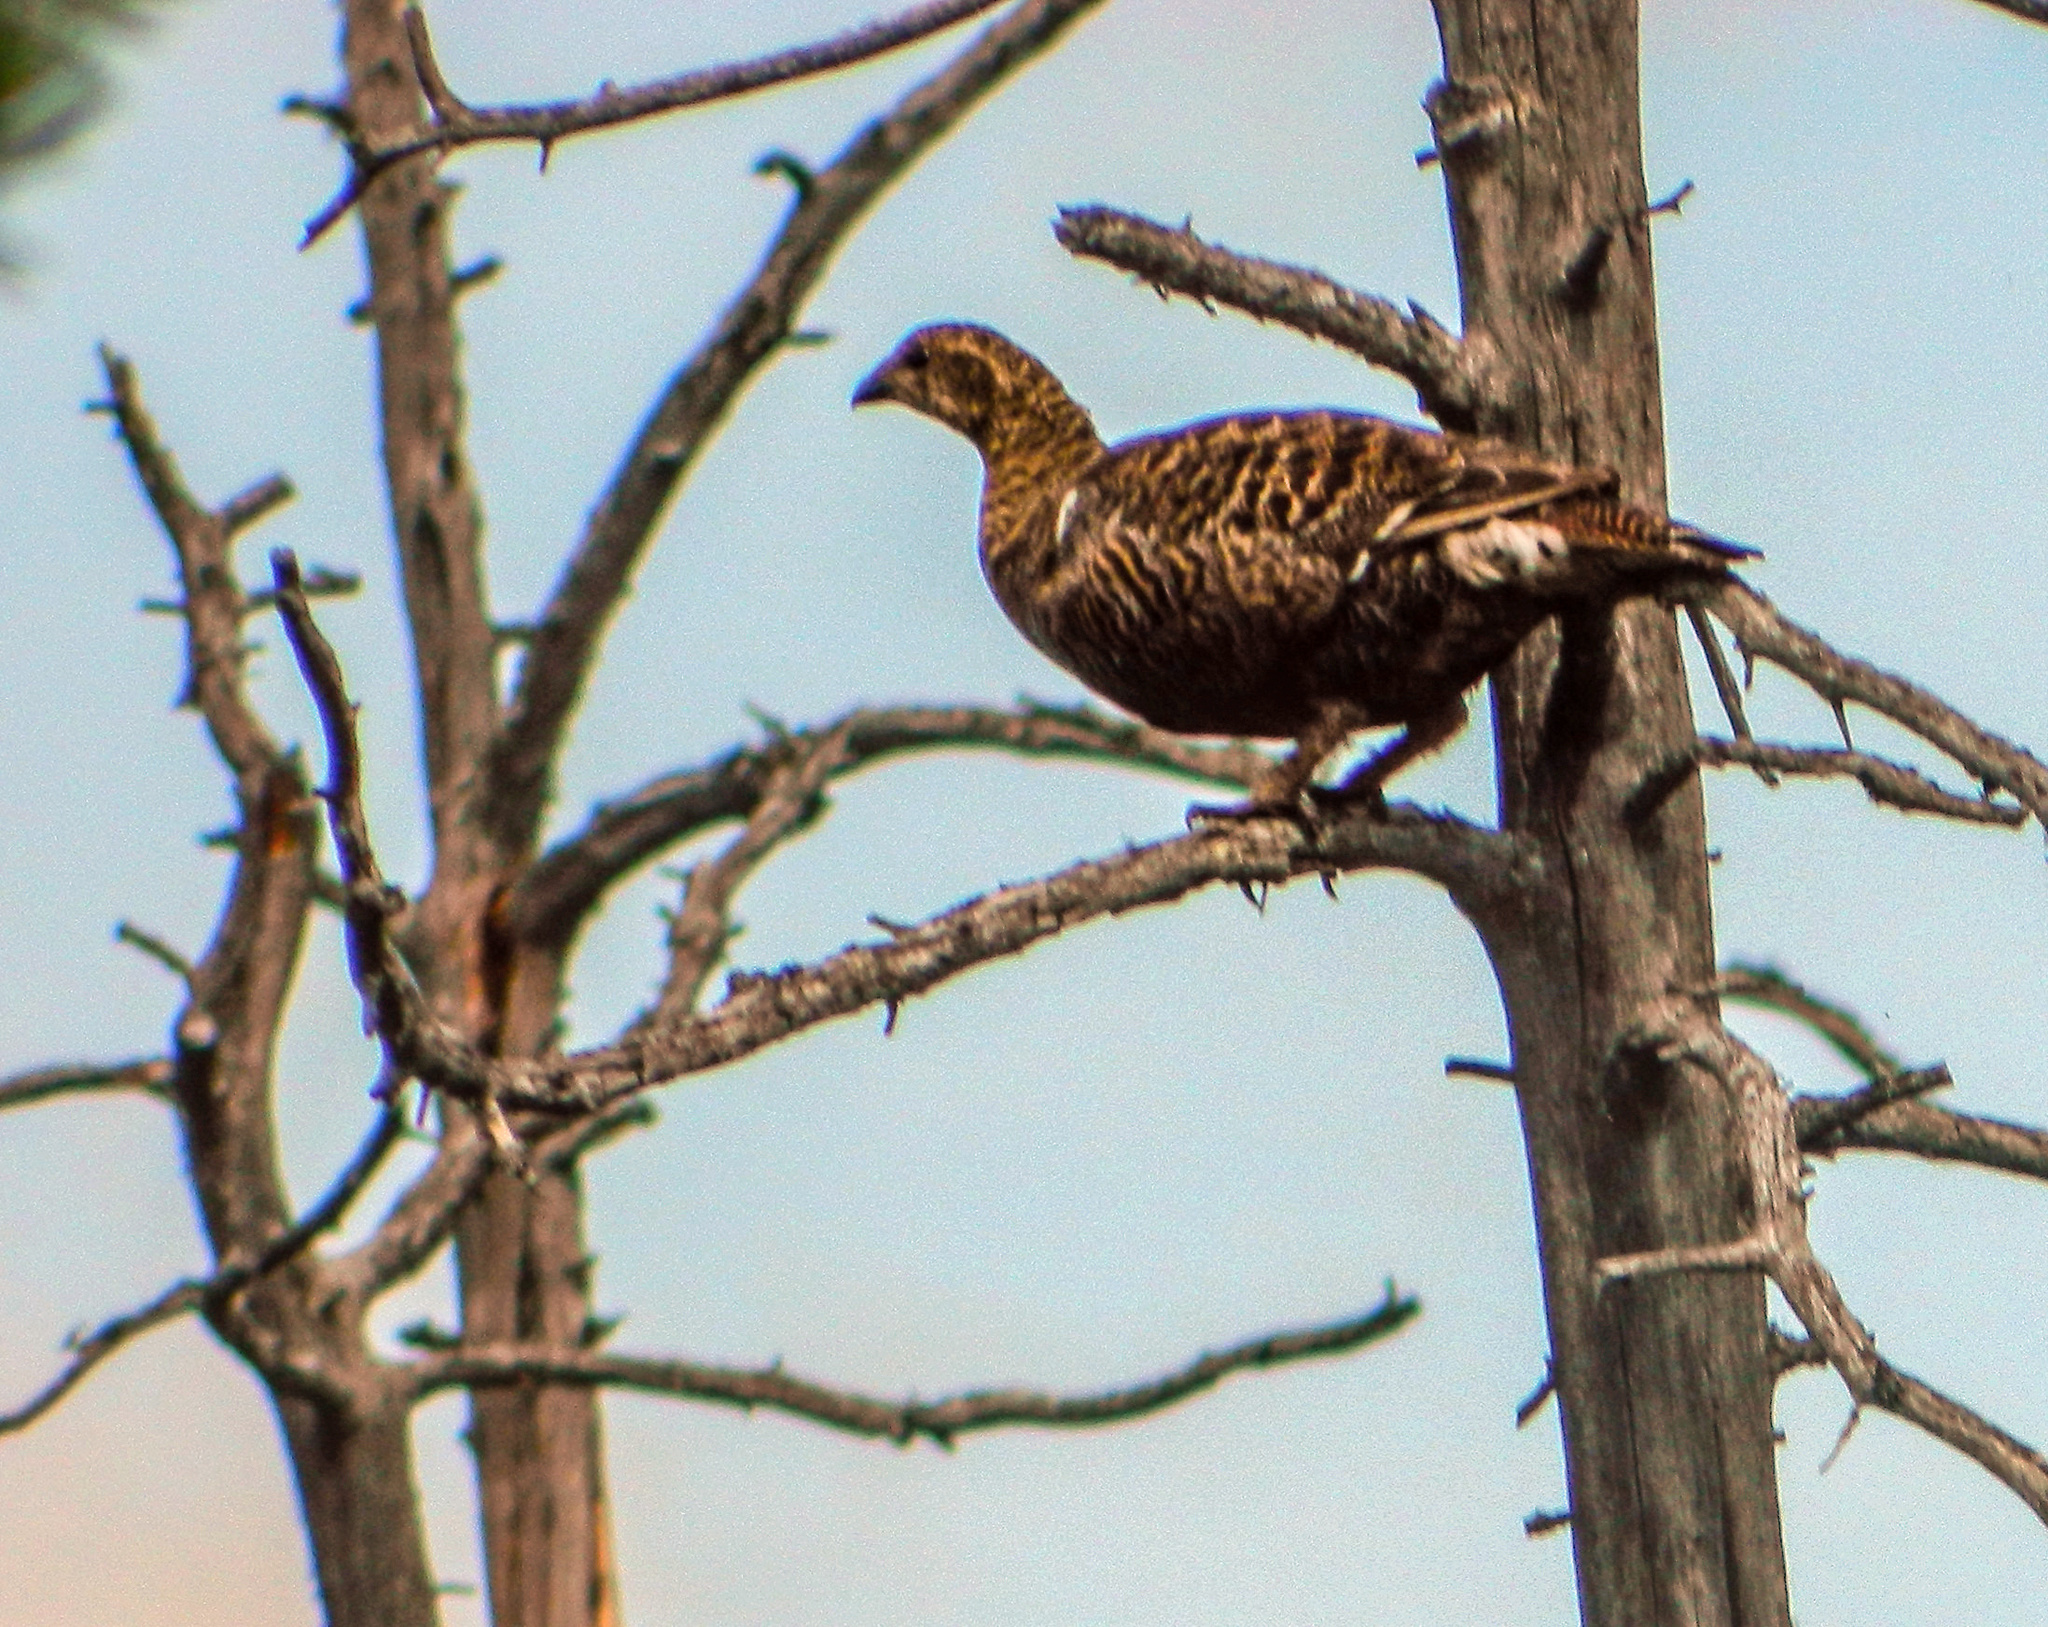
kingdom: Animalia
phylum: Chordata
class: Aves
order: Galliformes
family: Phasianidae
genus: Lyrurus
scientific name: Lyrurus tetrix
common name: Black grouse
